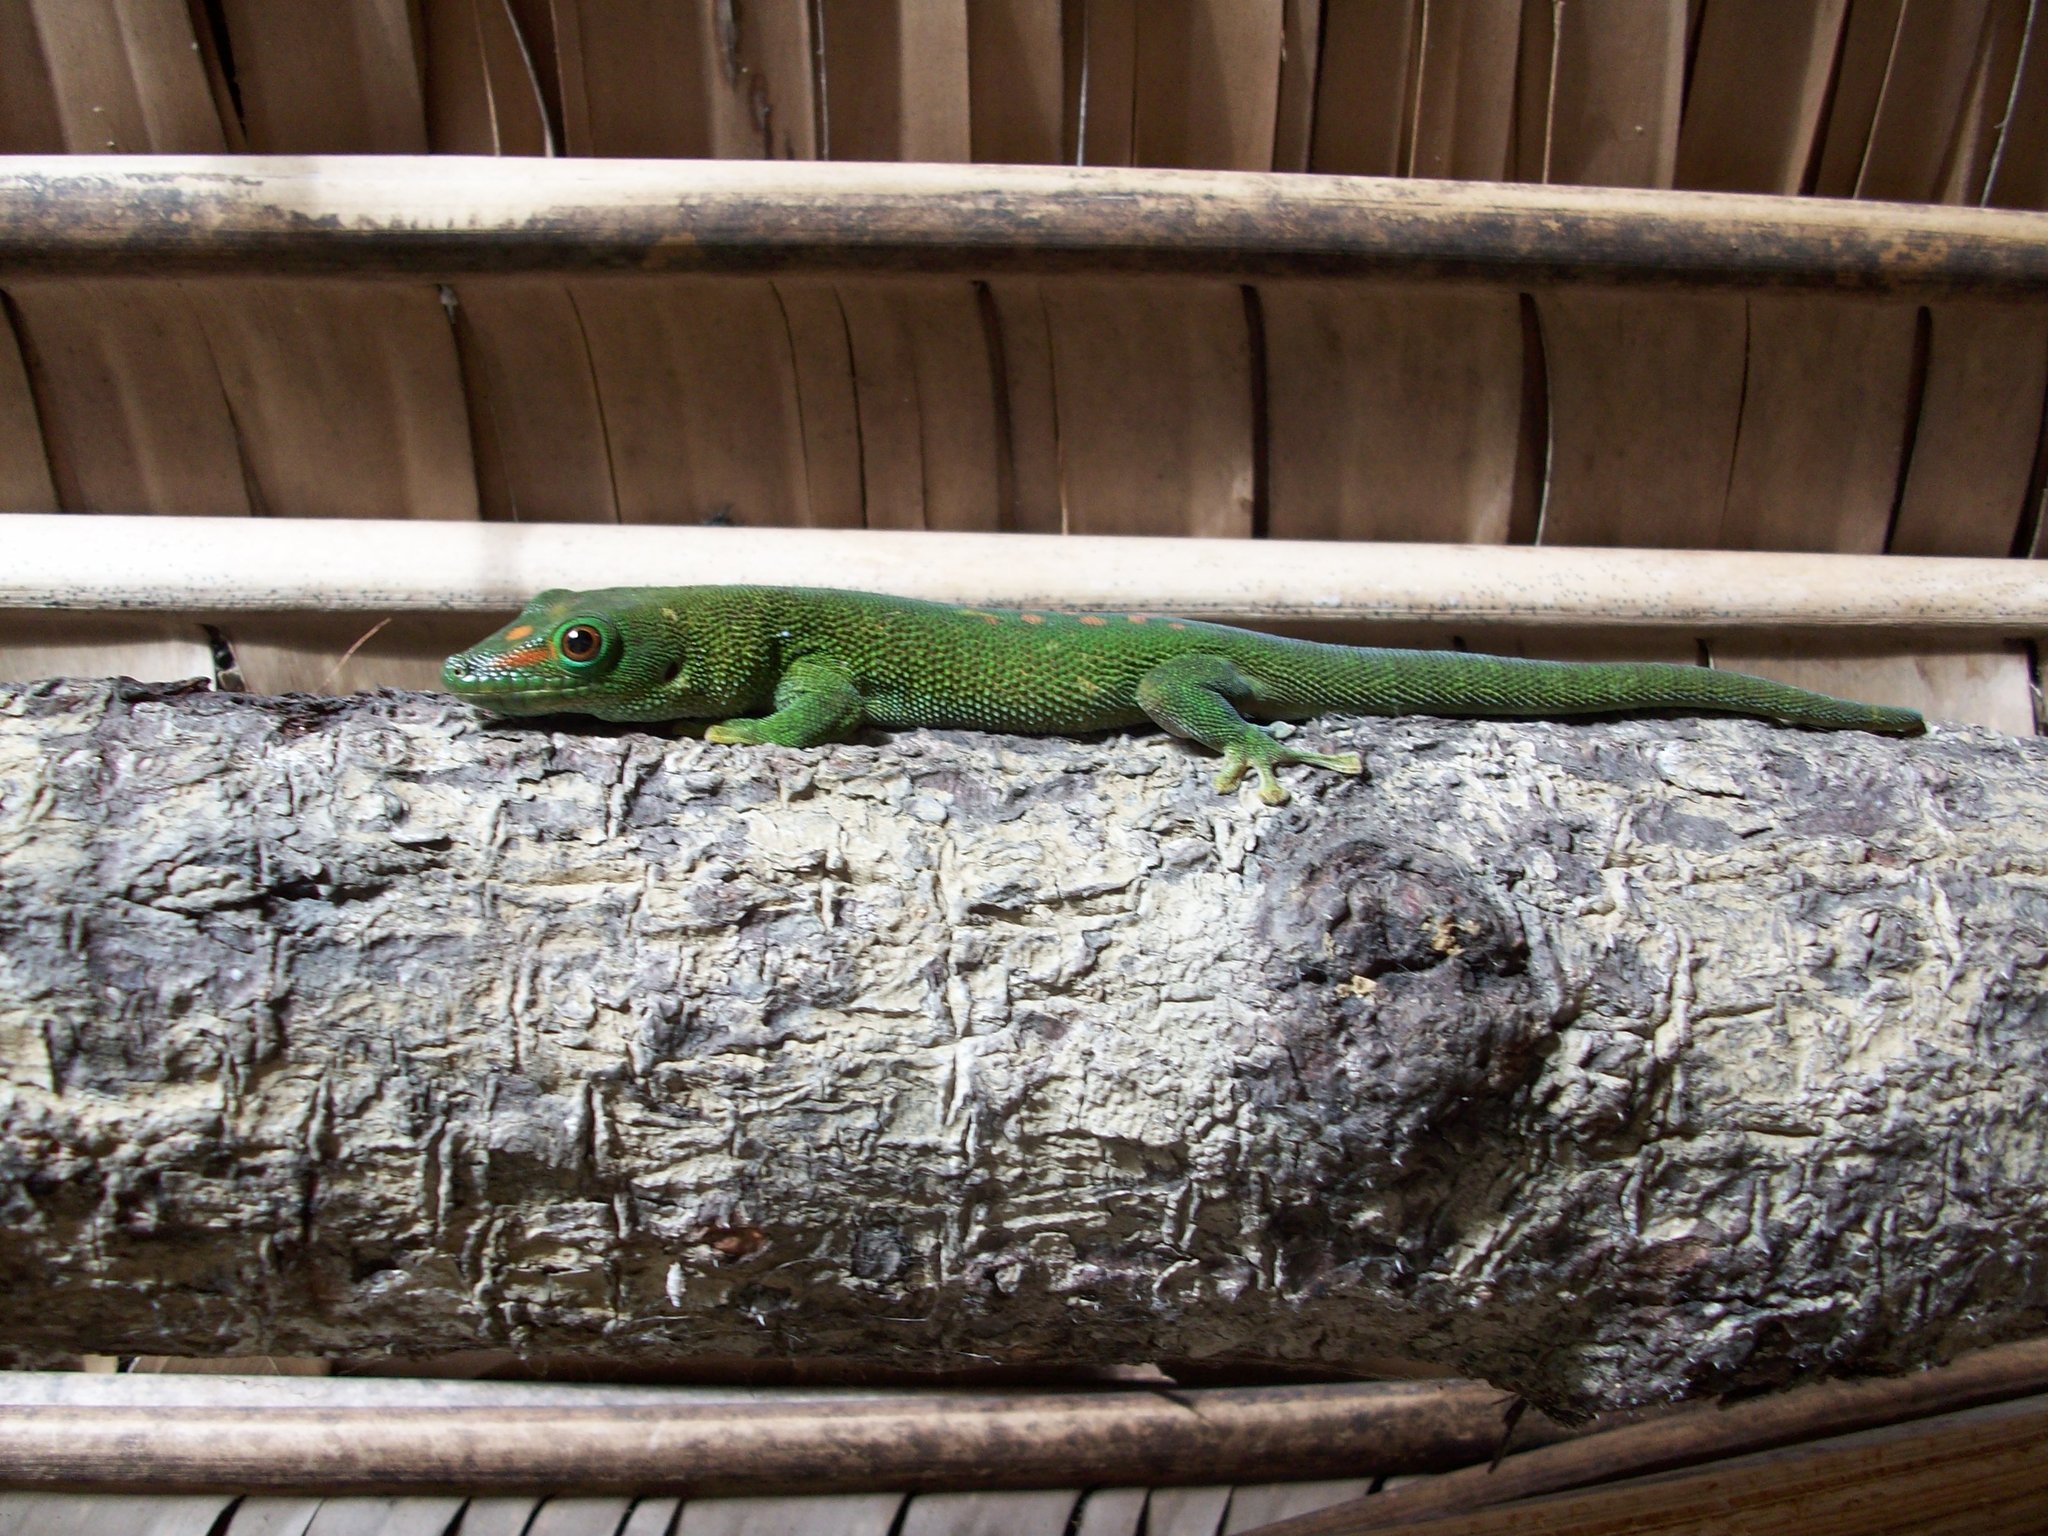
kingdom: Animalia
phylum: Chordata
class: Squamata
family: Gekkonidae
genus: Phelsuma
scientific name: Phelsuma grandis
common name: Madagascar giant day gecko
